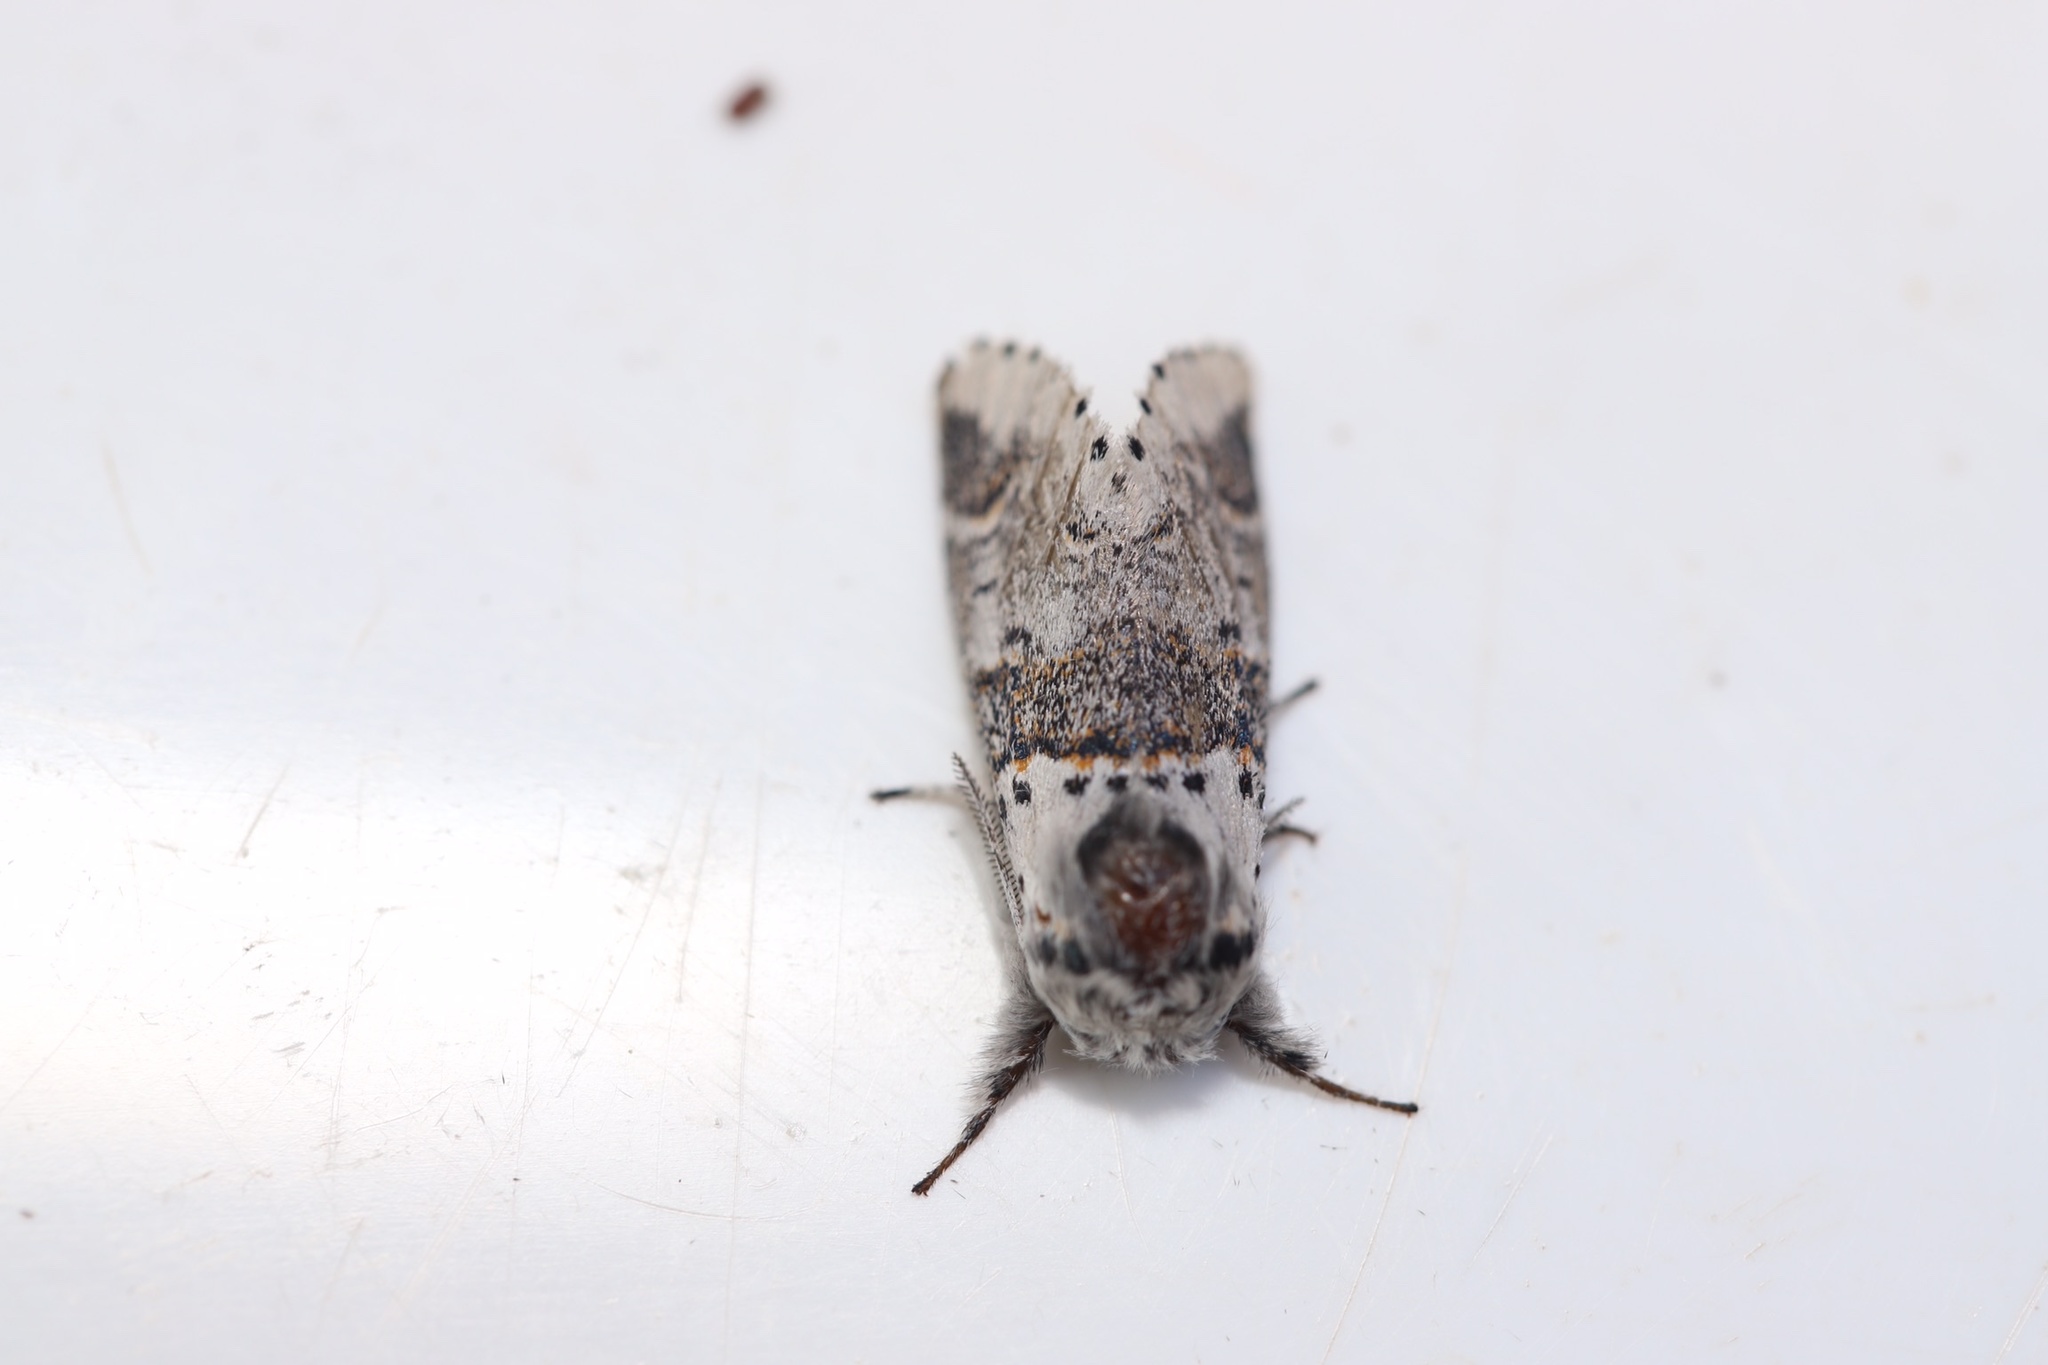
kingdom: Animalia
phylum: Arthropoda
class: Insecta
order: Lepidoptera
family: Notodontidae
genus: Furcula
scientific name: Furcula occidentalis
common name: Western furcula moth
